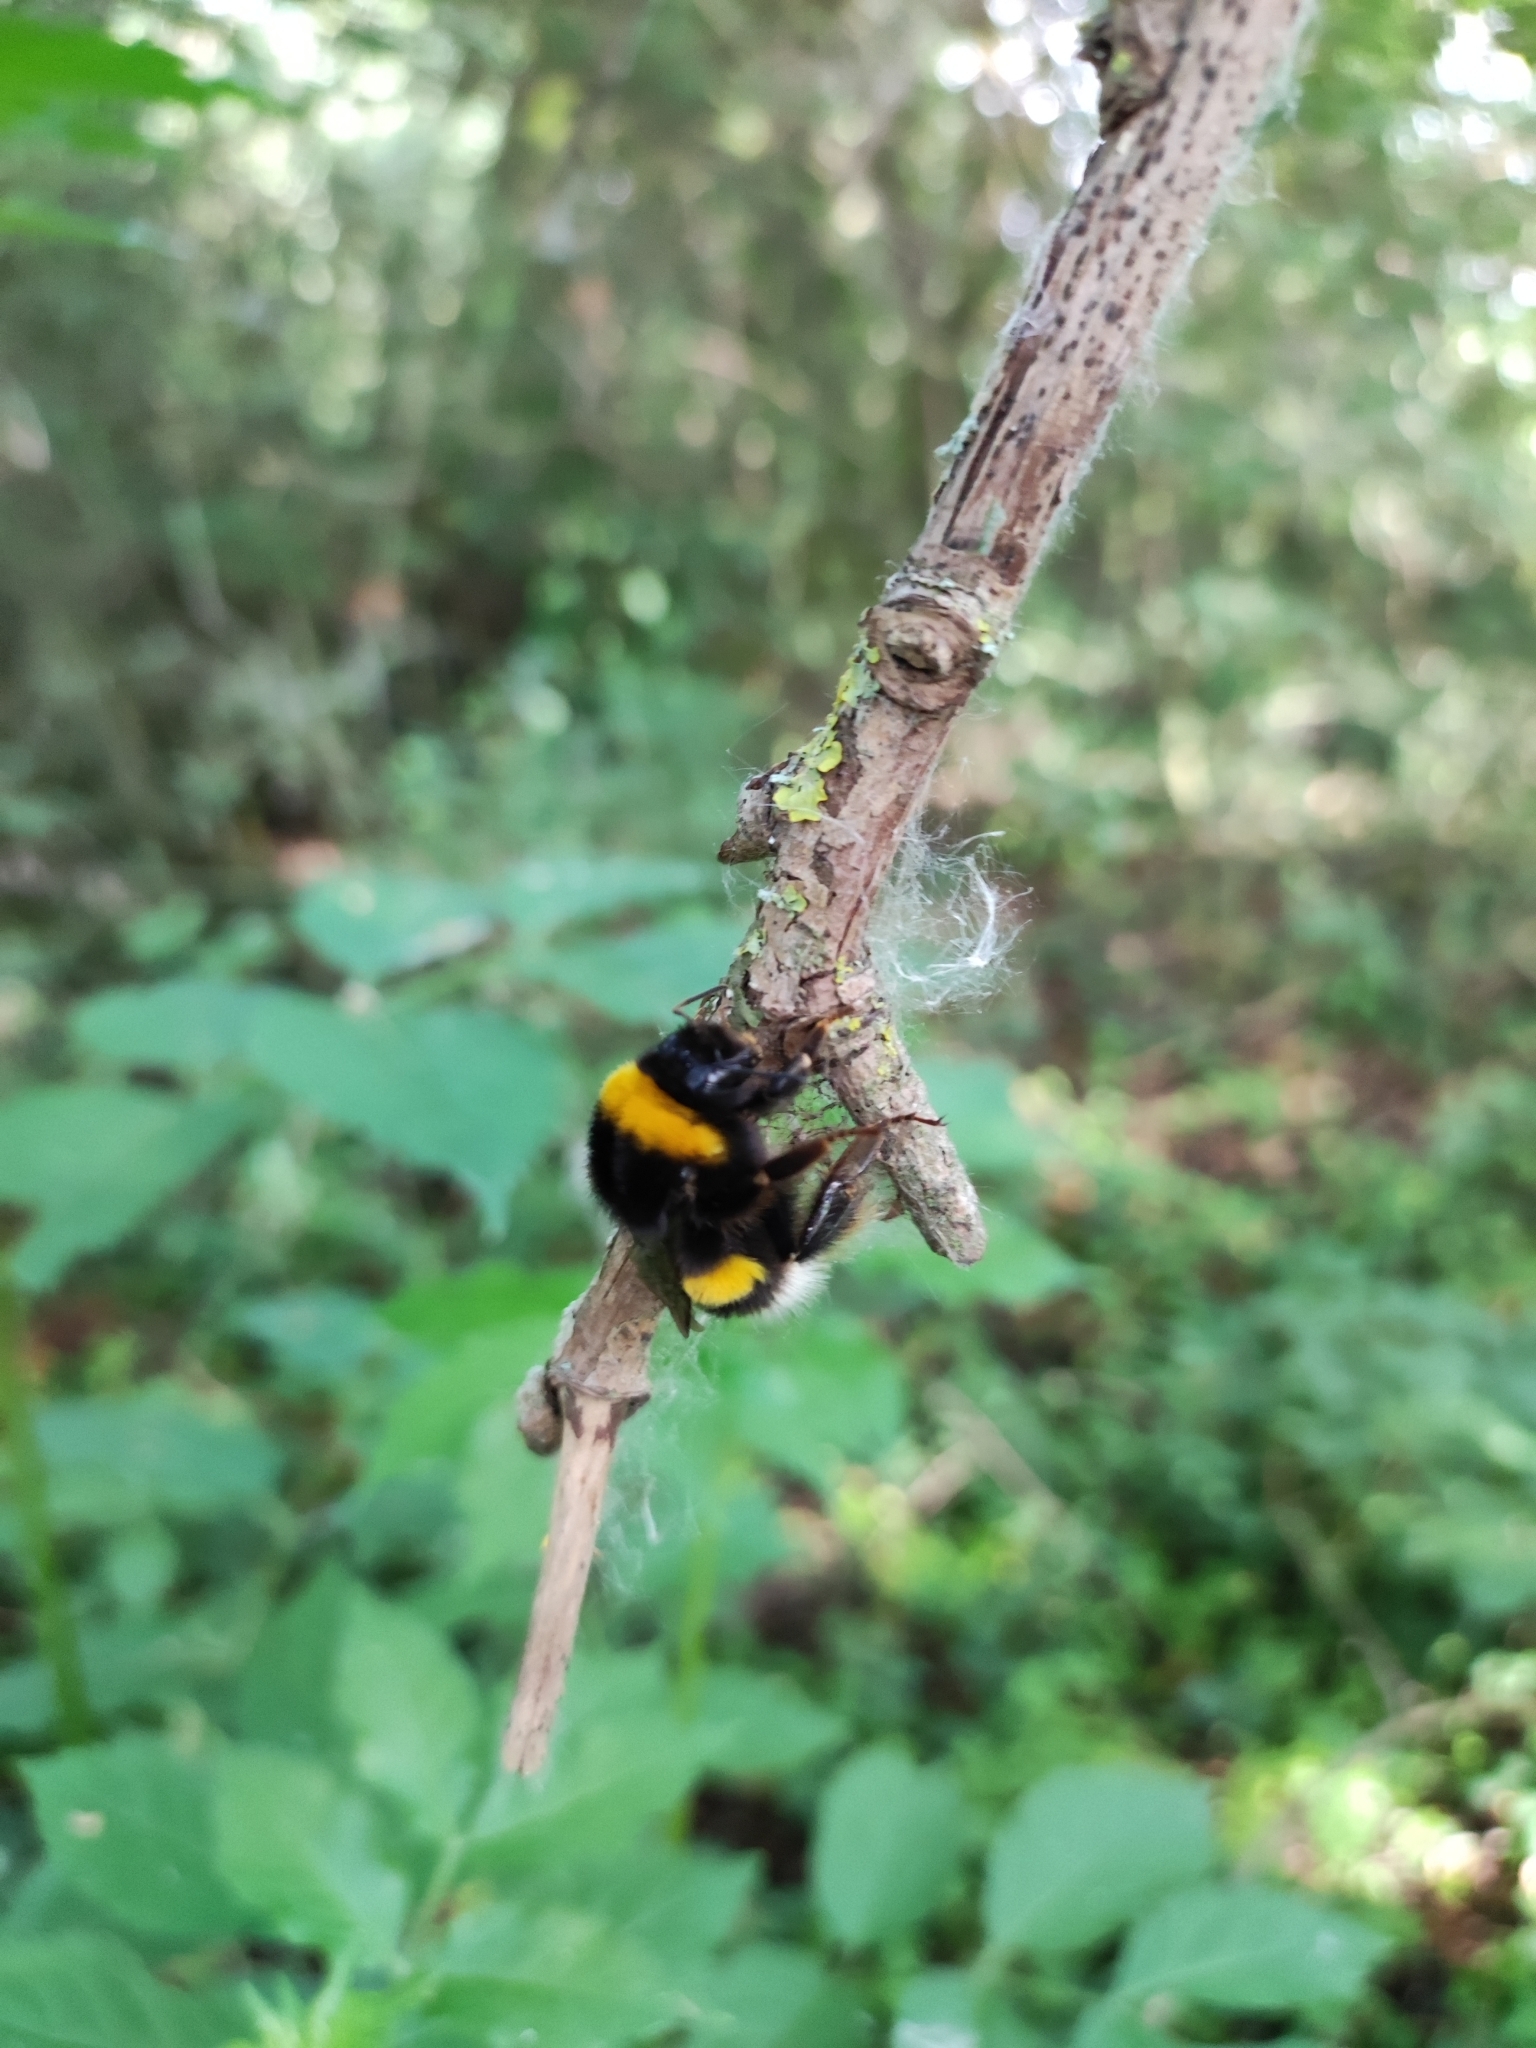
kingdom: Animalia
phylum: Arthropoda
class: Insecta
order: Hymenoptera
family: Apidae
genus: Bombus
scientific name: Bombus terrestris
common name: Buff-tailed bumblebee
